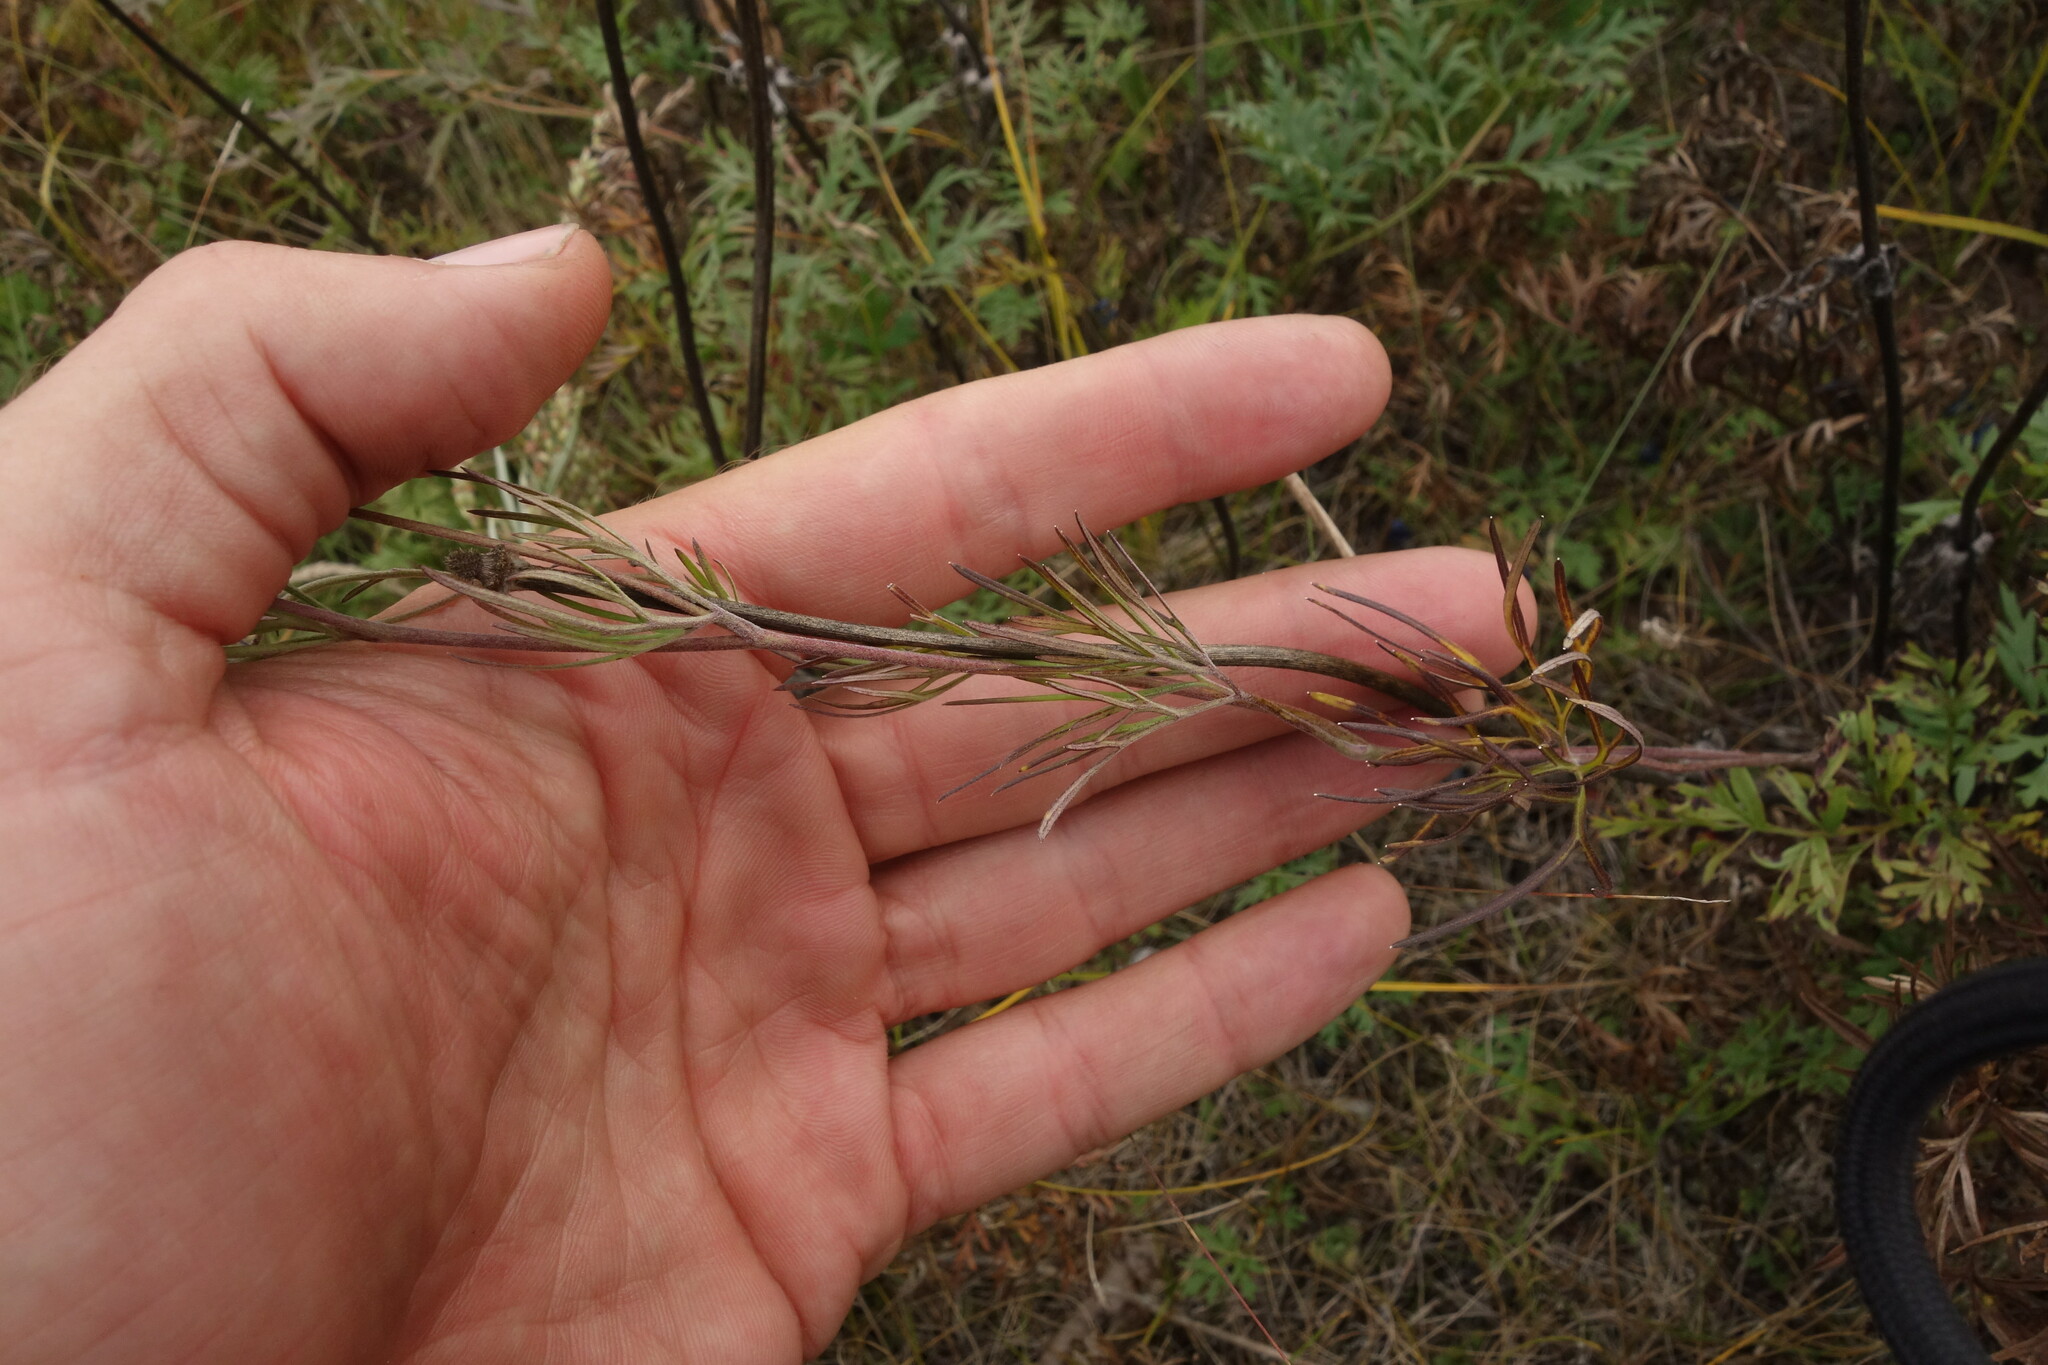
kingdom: Plantae
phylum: Tracheophyta
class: Magnoliopsida
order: Ranunculales
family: Ranunculaceae
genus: Delphinium
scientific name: Delphinium grandiflorum
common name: Siberian larkspur
